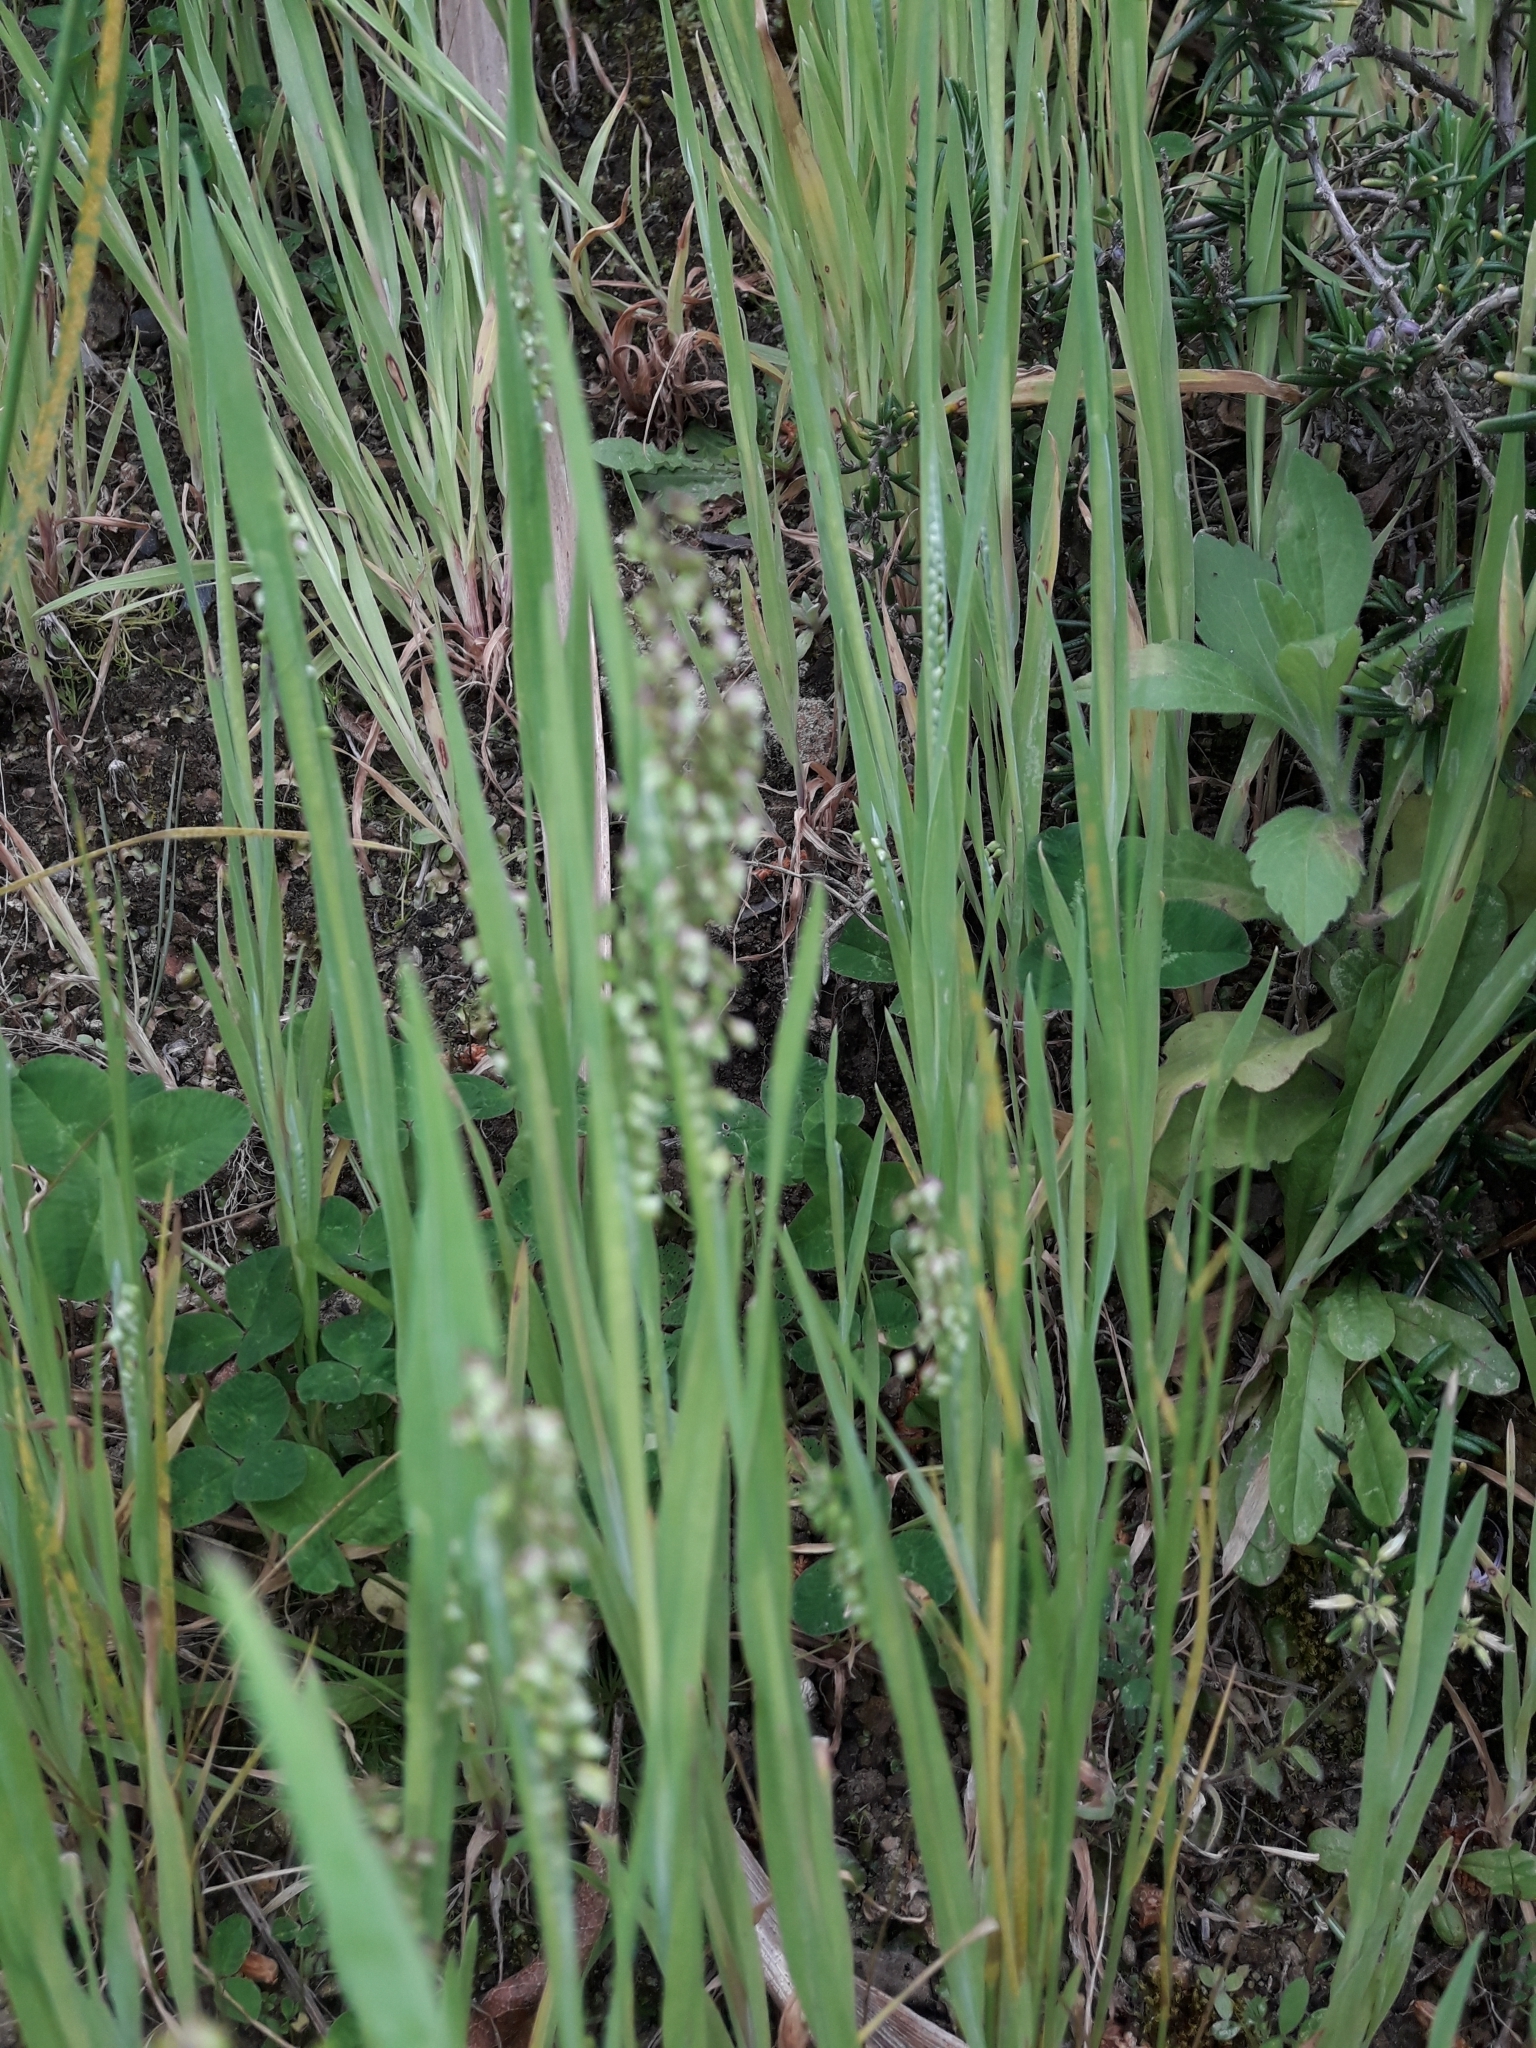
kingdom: Plantae
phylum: Tracheophyta
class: Liliopsida
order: Poales
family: Poaceae
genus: Briza
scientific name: Briza minor
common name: Lesser quaking-grass
